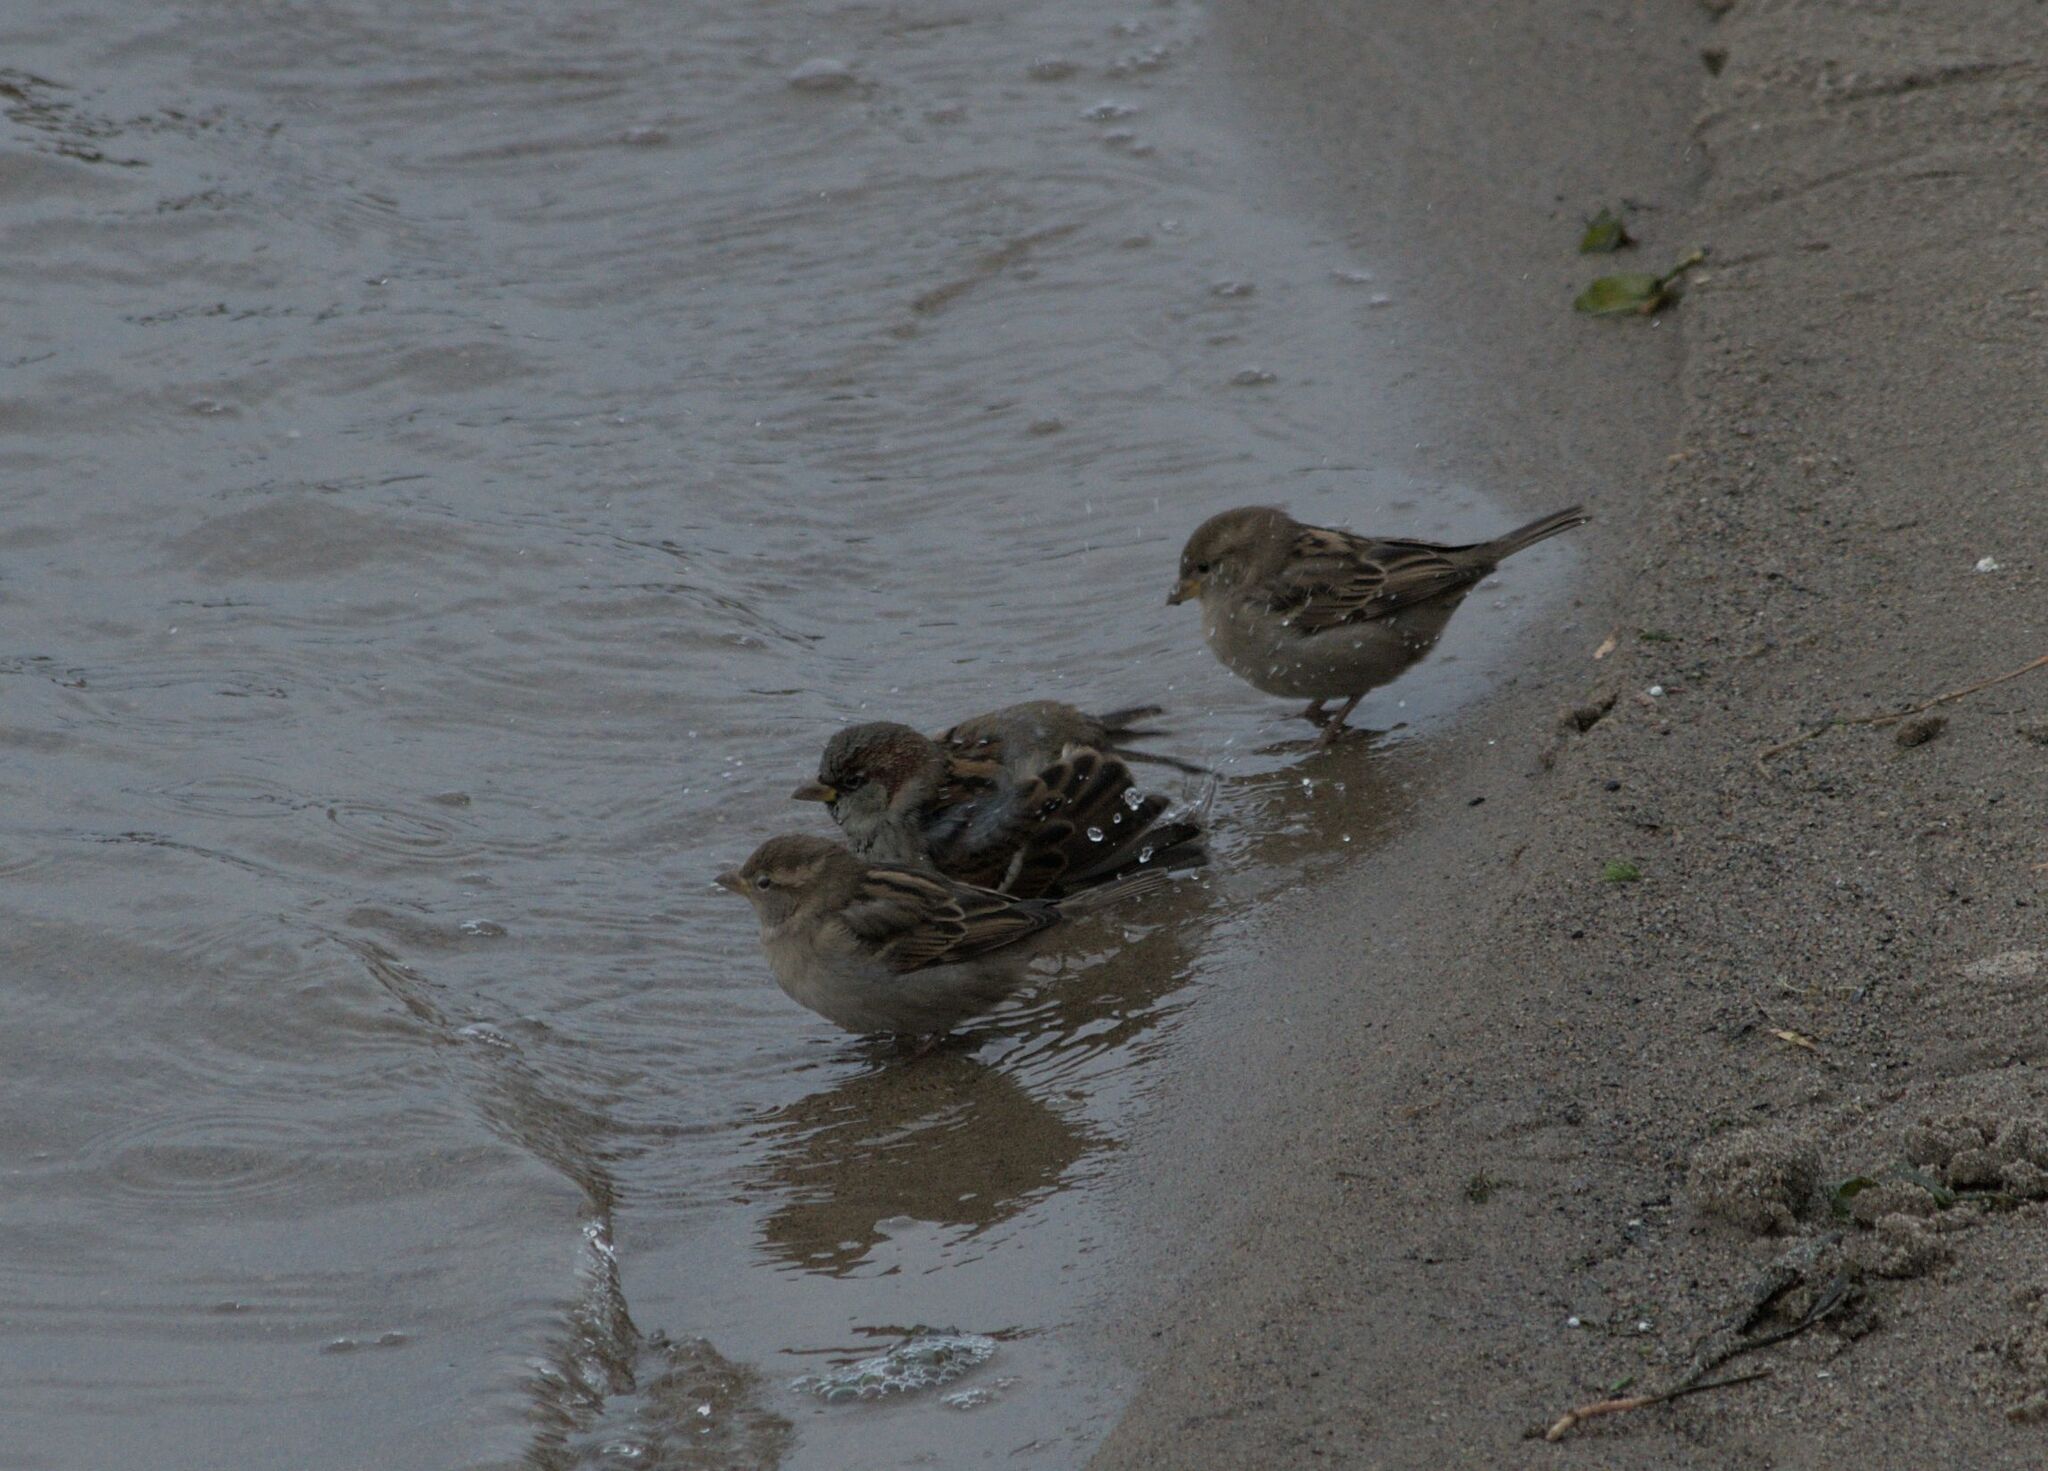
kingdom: Animalia
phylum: Chordata
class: Aves
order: Passeriformes
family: Passeridae
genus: Passer
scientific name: Passer domesticus
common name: House sparrow
